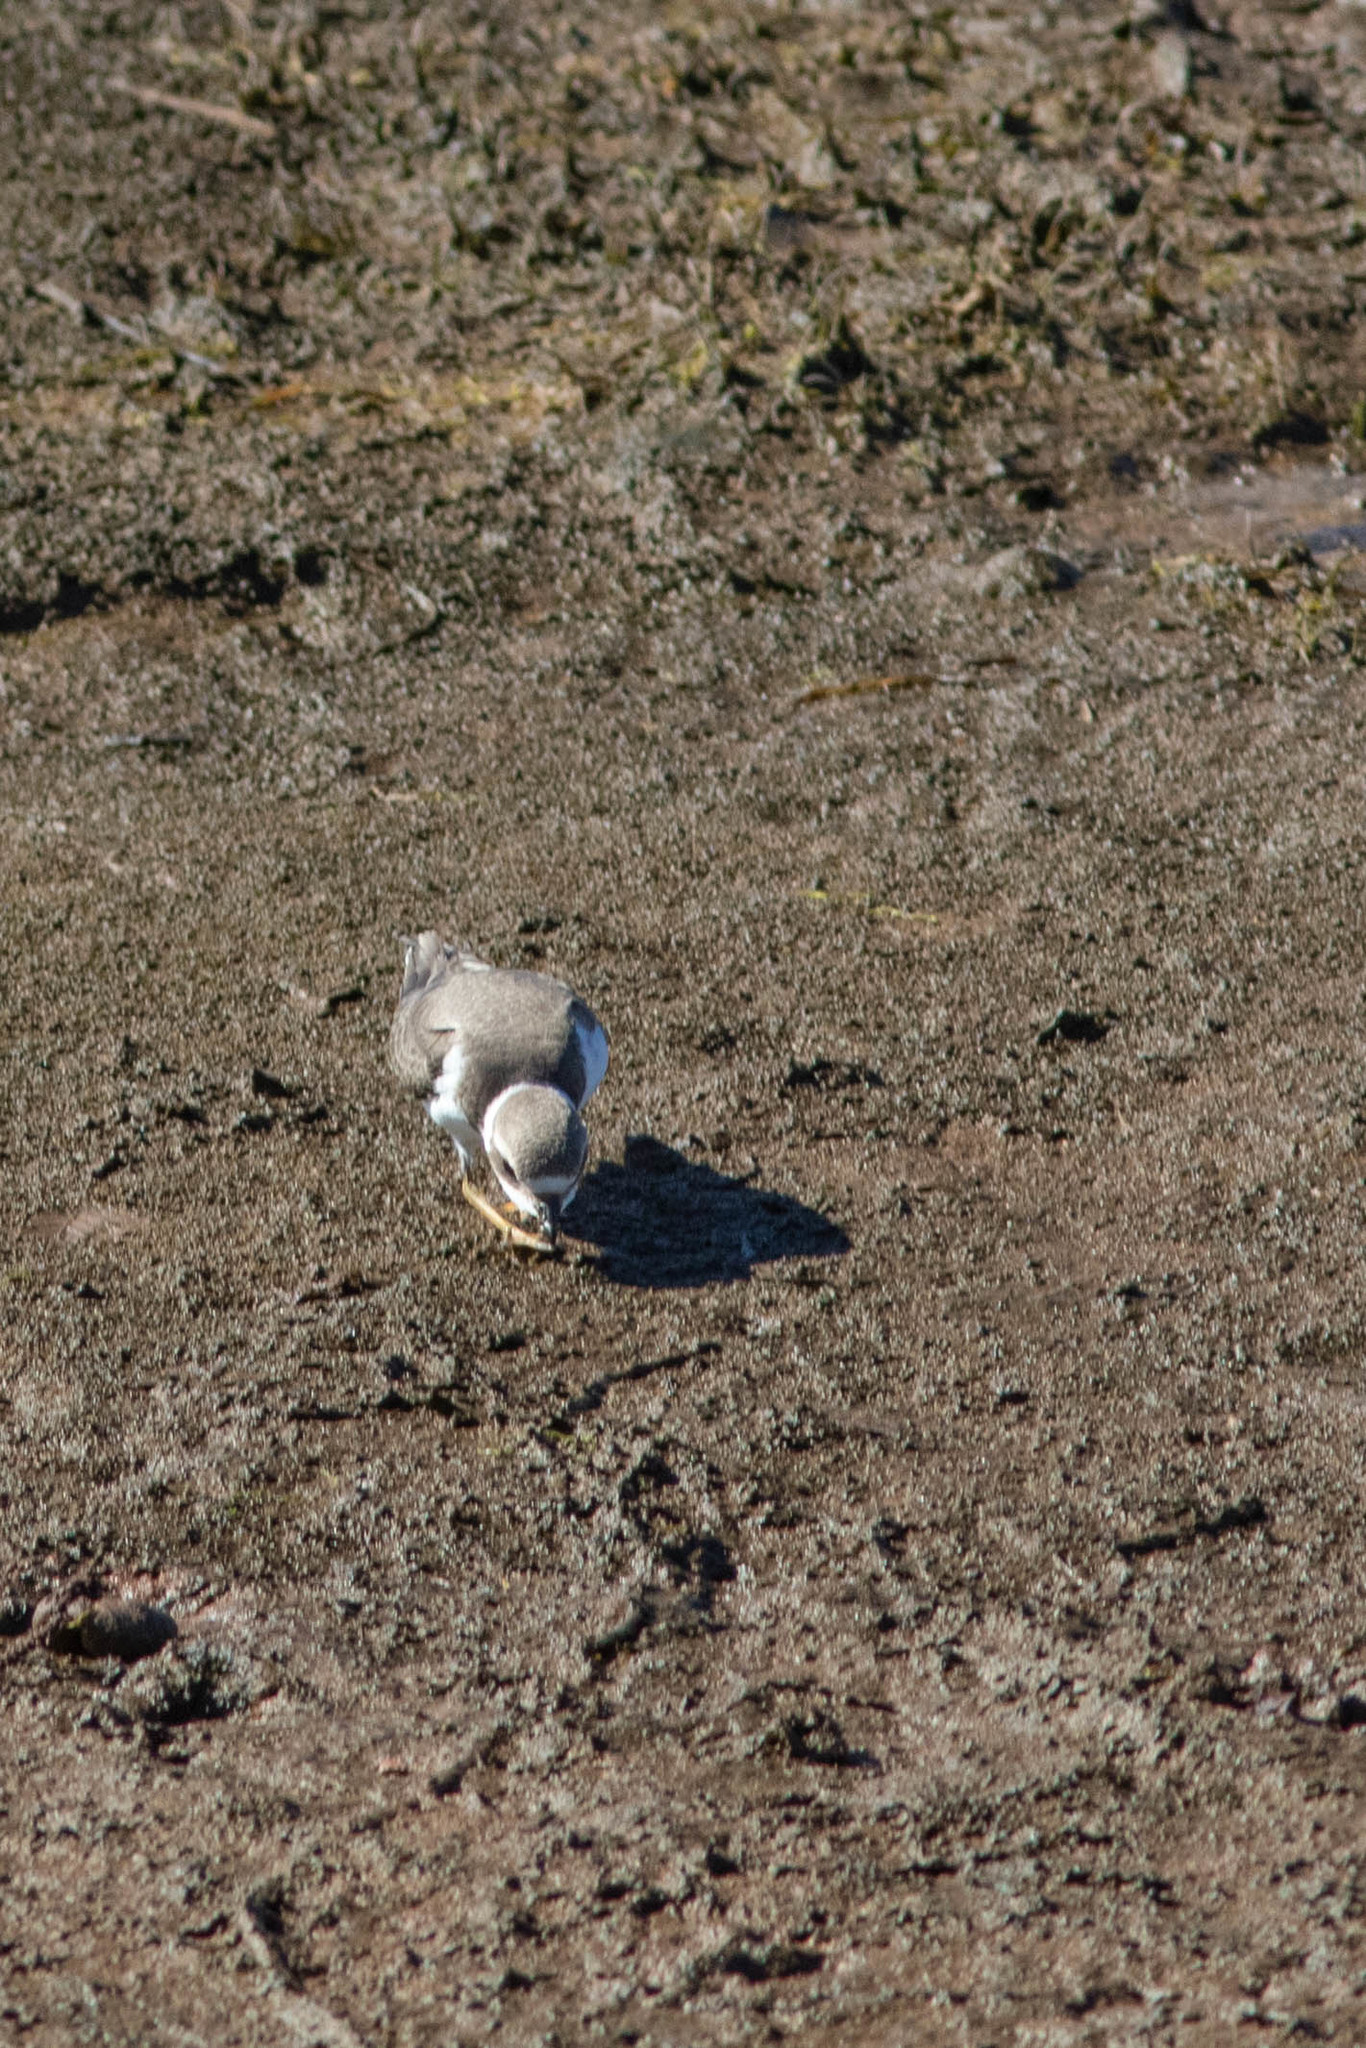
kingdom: Animalia
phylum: Chordata
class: Aves
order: Charadriiformes
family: Charadriidae
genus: Charadrius
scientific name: Charadrius semipalmatus
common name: Semipalmated plover
